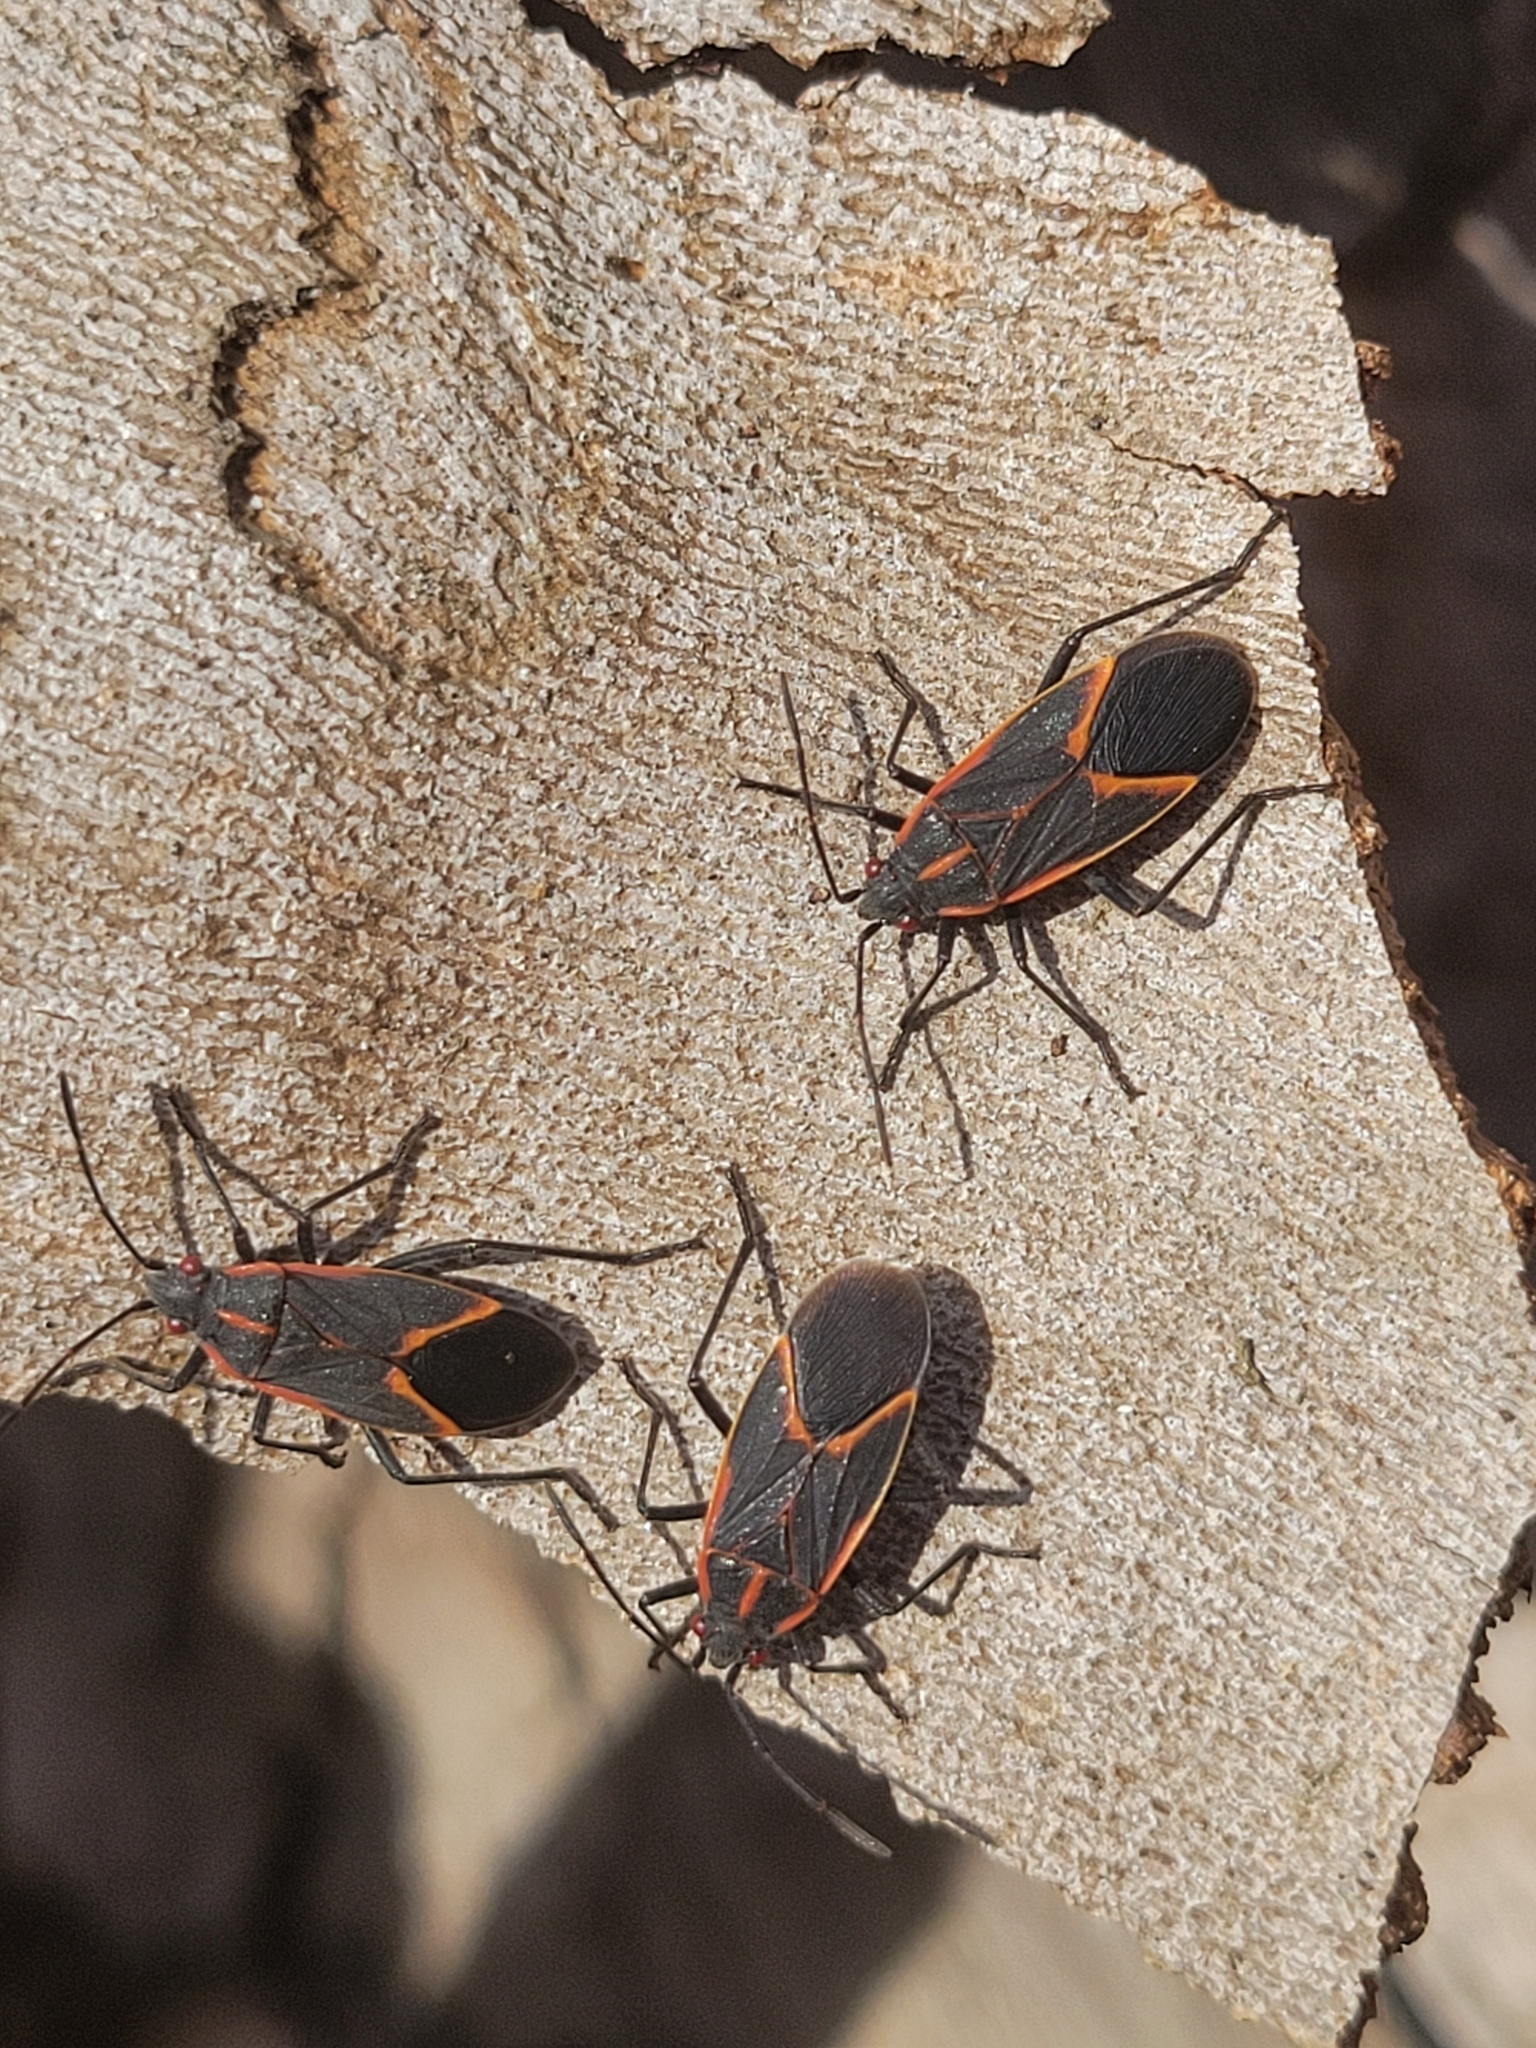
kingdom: Animalia
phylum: Arthropoda
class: Insecta
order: Hemiptera
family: Rhopalidae
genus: Boisea
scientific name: Boisea trivittata
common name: Boxelder bug
